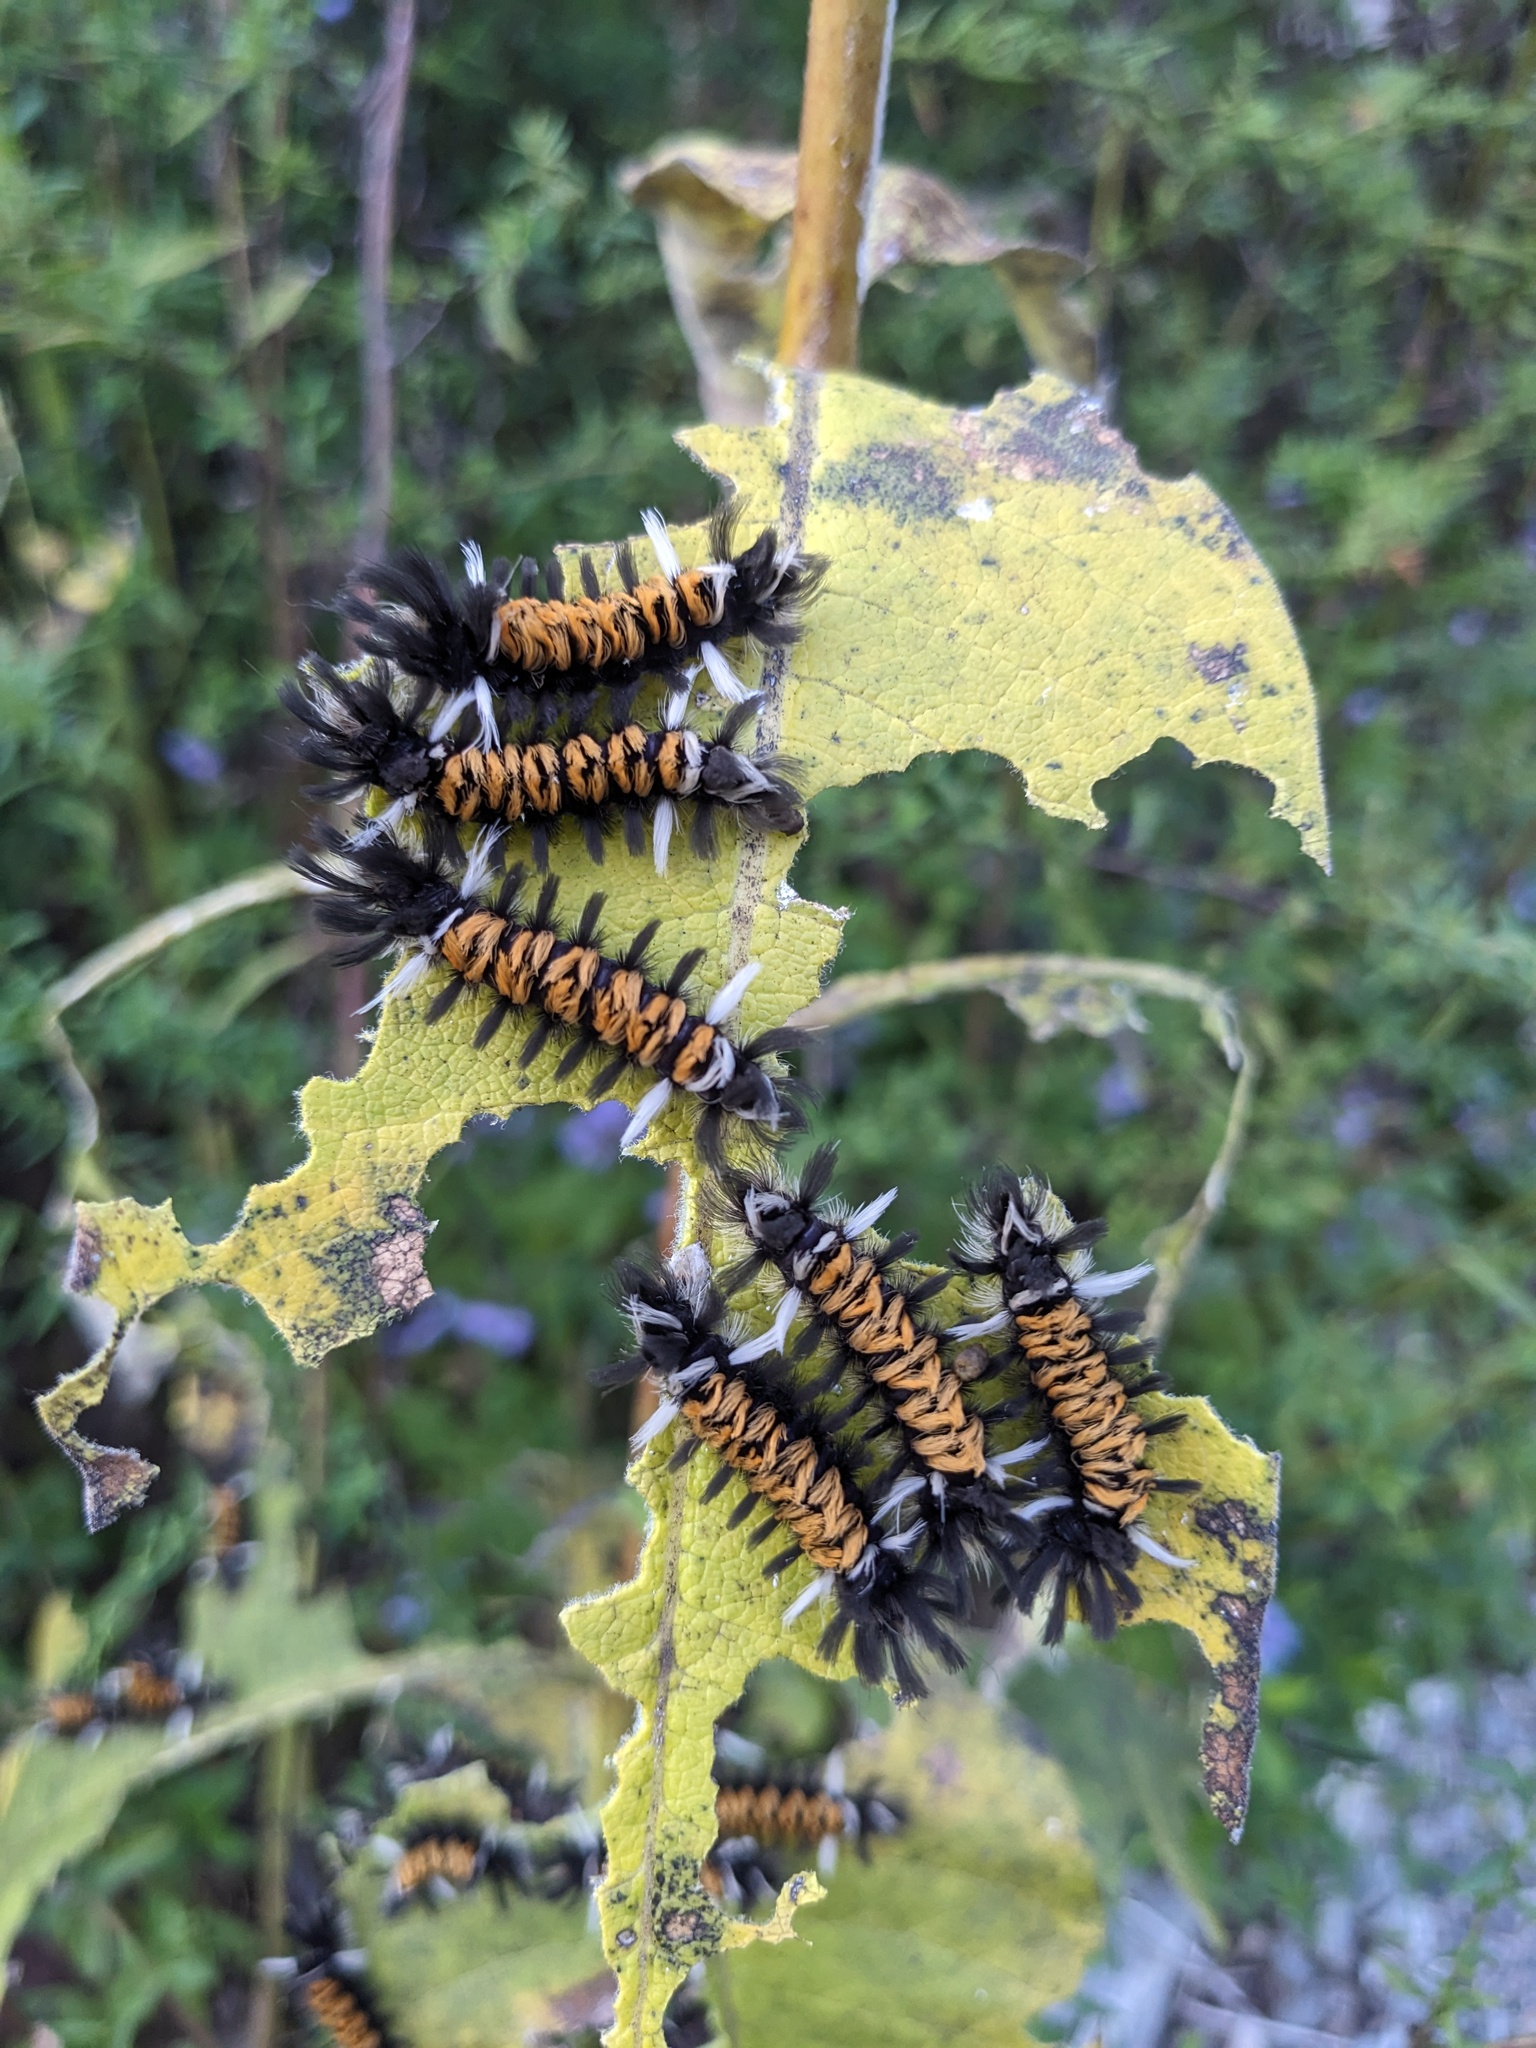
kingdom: Animalia
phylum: Arthropoda
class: Insecta
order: Lepidoptera
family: Erebidae
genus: Euchaetes
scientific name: Euchaetes egle
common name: Milkweed tussock moth
